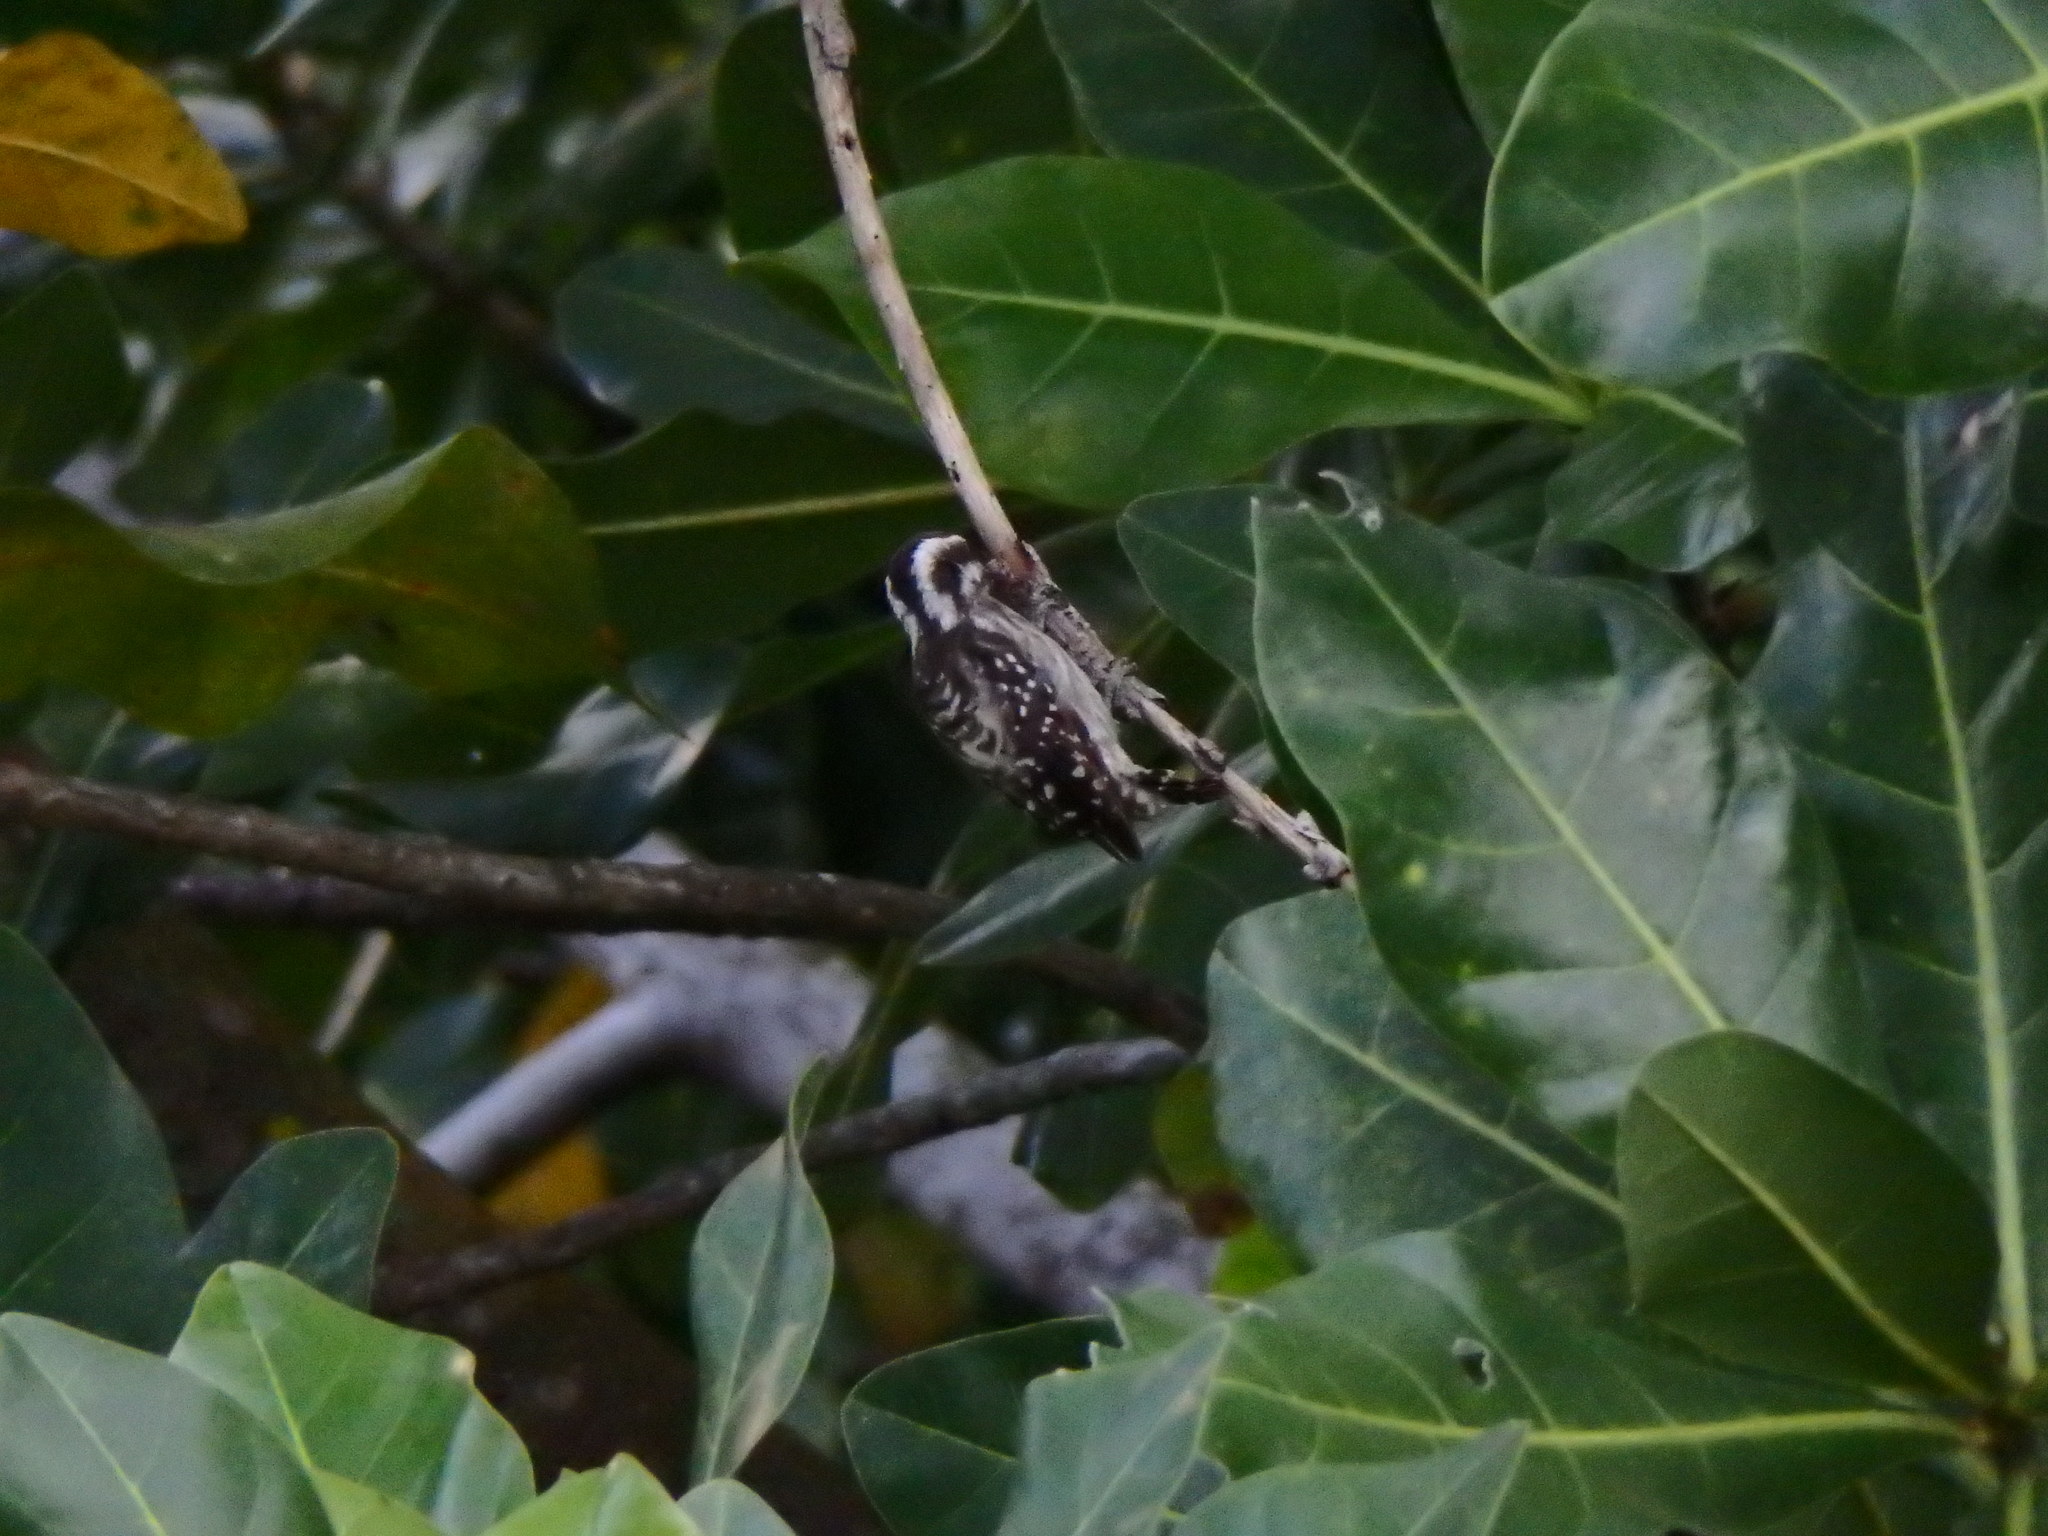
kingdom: Animalia
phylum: Chordata
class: Aves
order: Piciformes
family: Picidae
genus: Yungipicus
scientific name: Yungipicus moluccensis
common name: Sunda pygmy woodpecker
